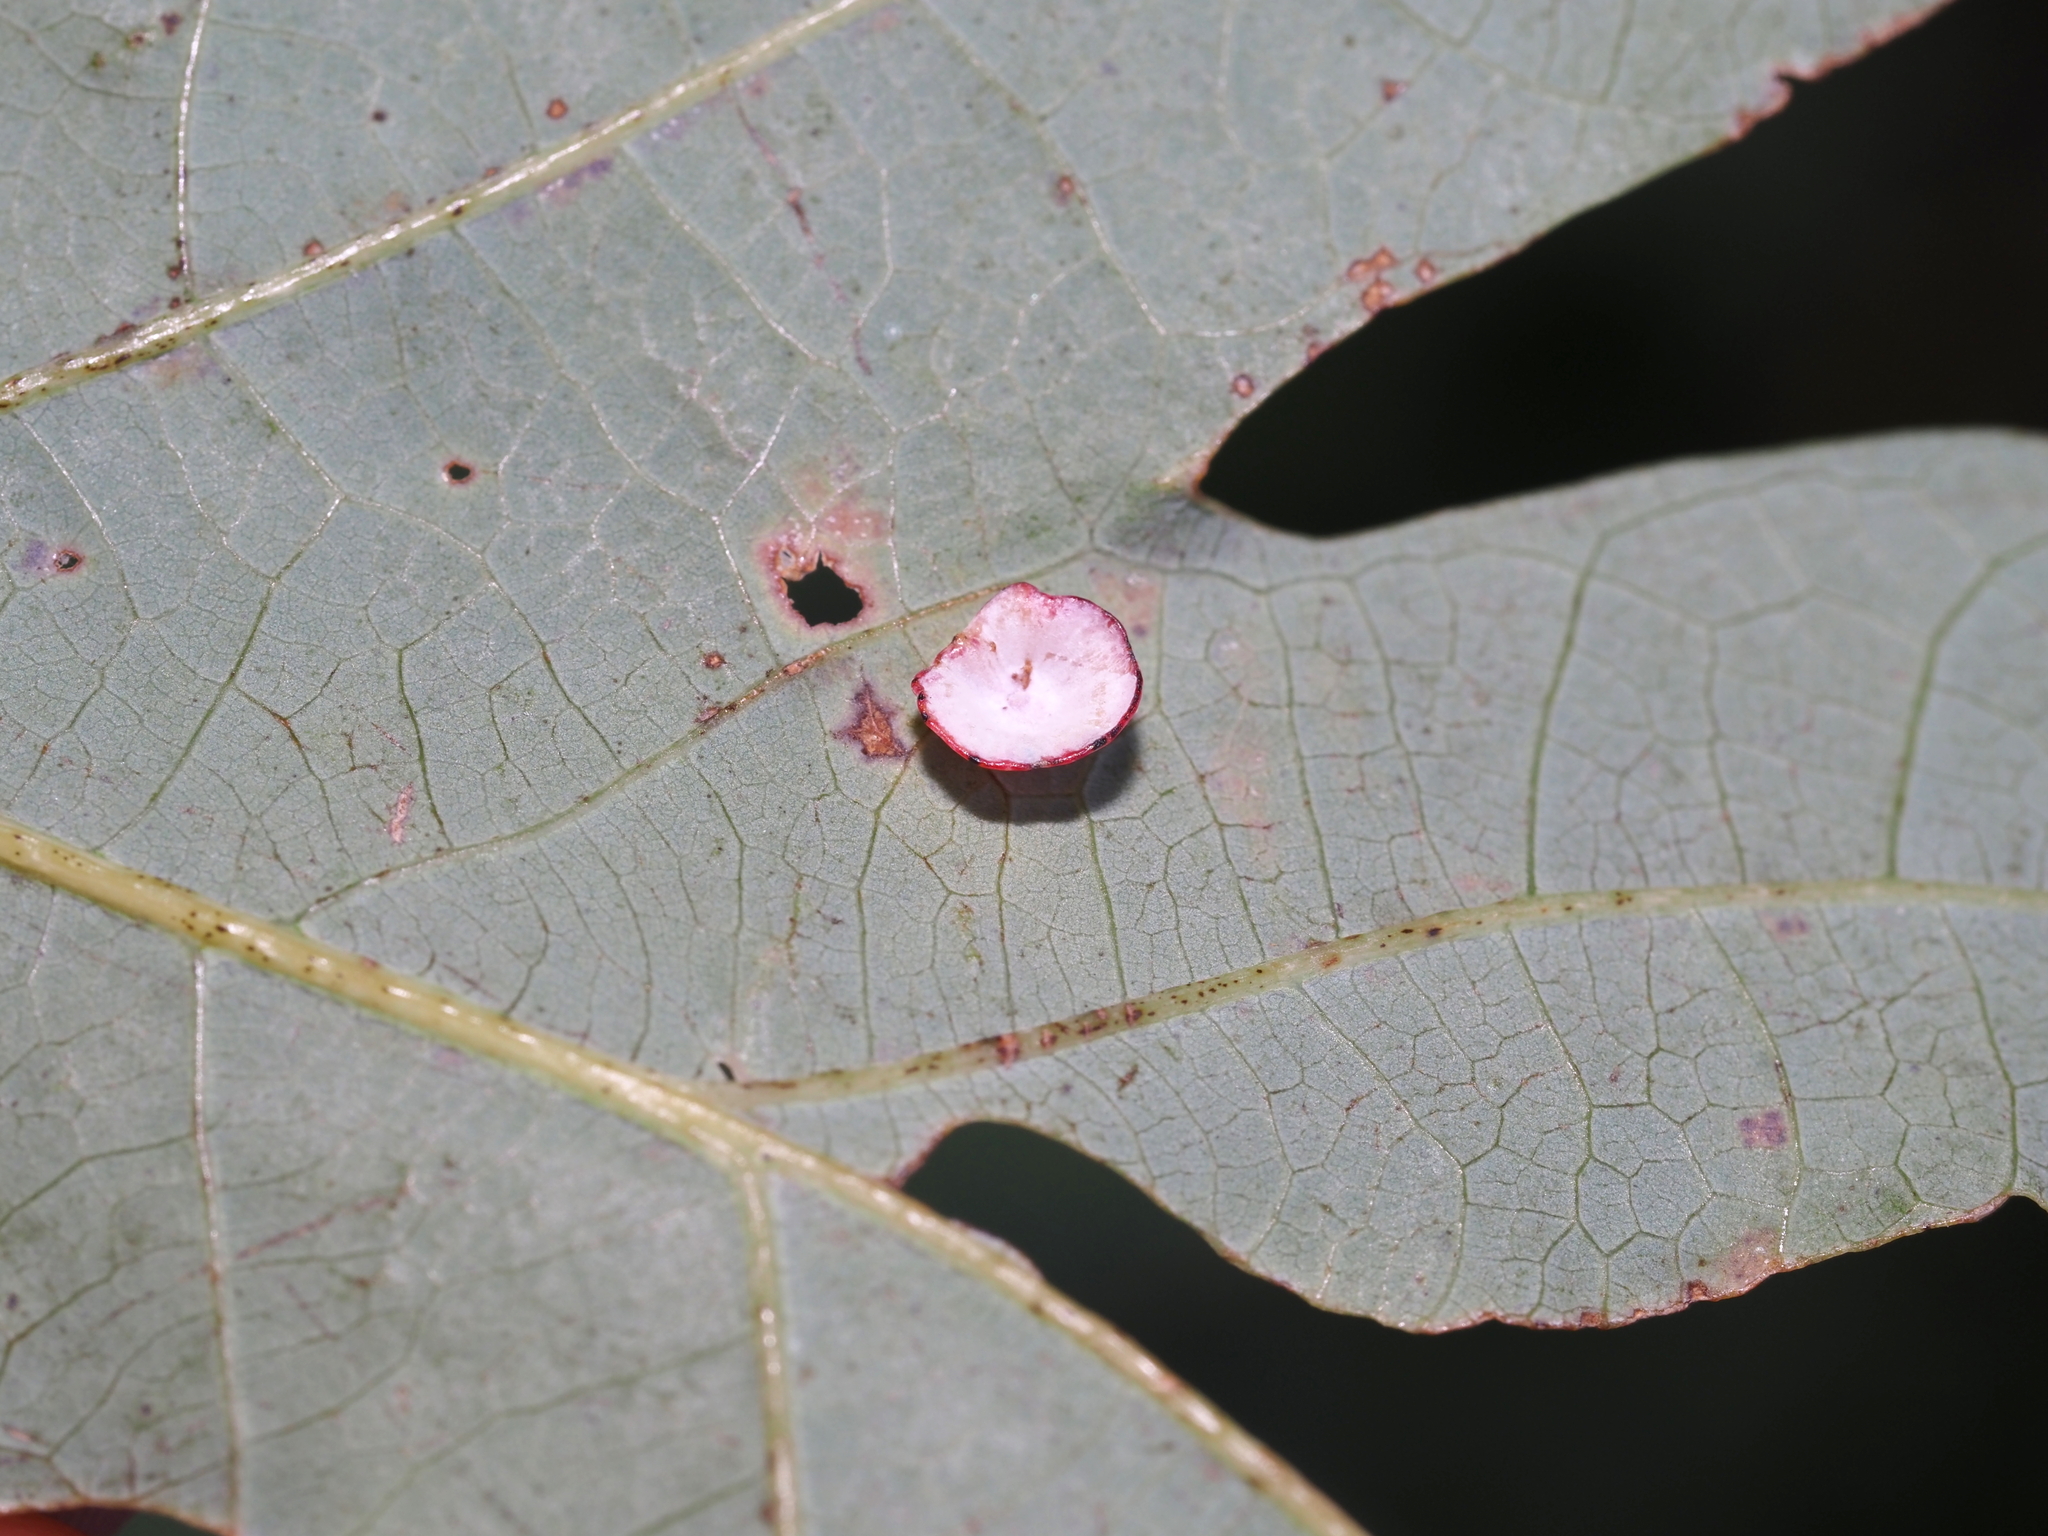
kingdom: Animalia
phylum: Arthropoda
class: Insecta
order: Hymenoptera
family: Cynipidae
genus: Phylloteras
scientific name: Phylloteras poculum
